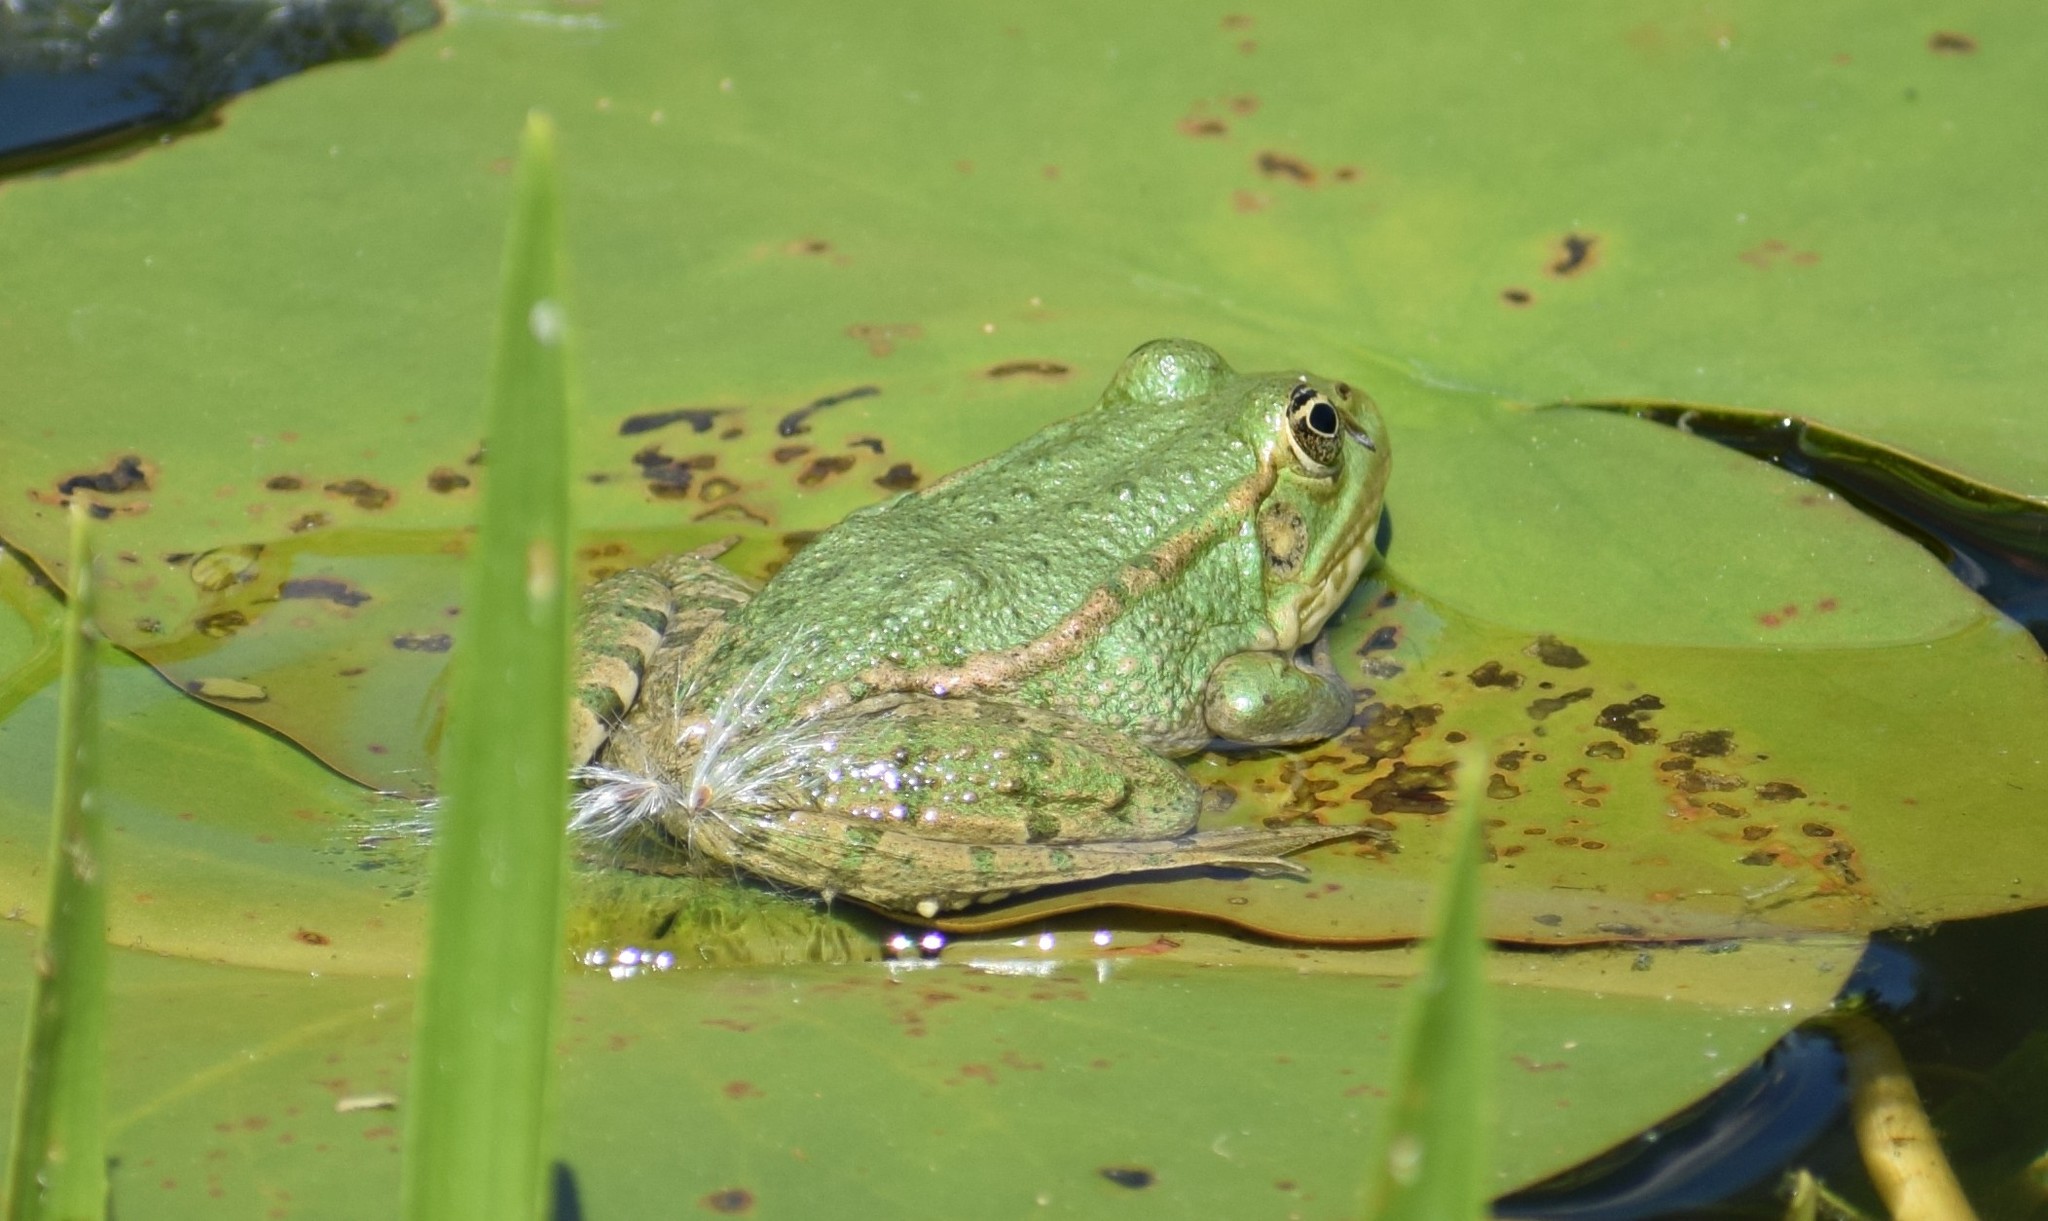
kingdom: Animalia
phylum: Chordata
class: Amphibia
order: Anura
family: Ranidae
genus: Pelophylax
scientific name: Pelophylax
